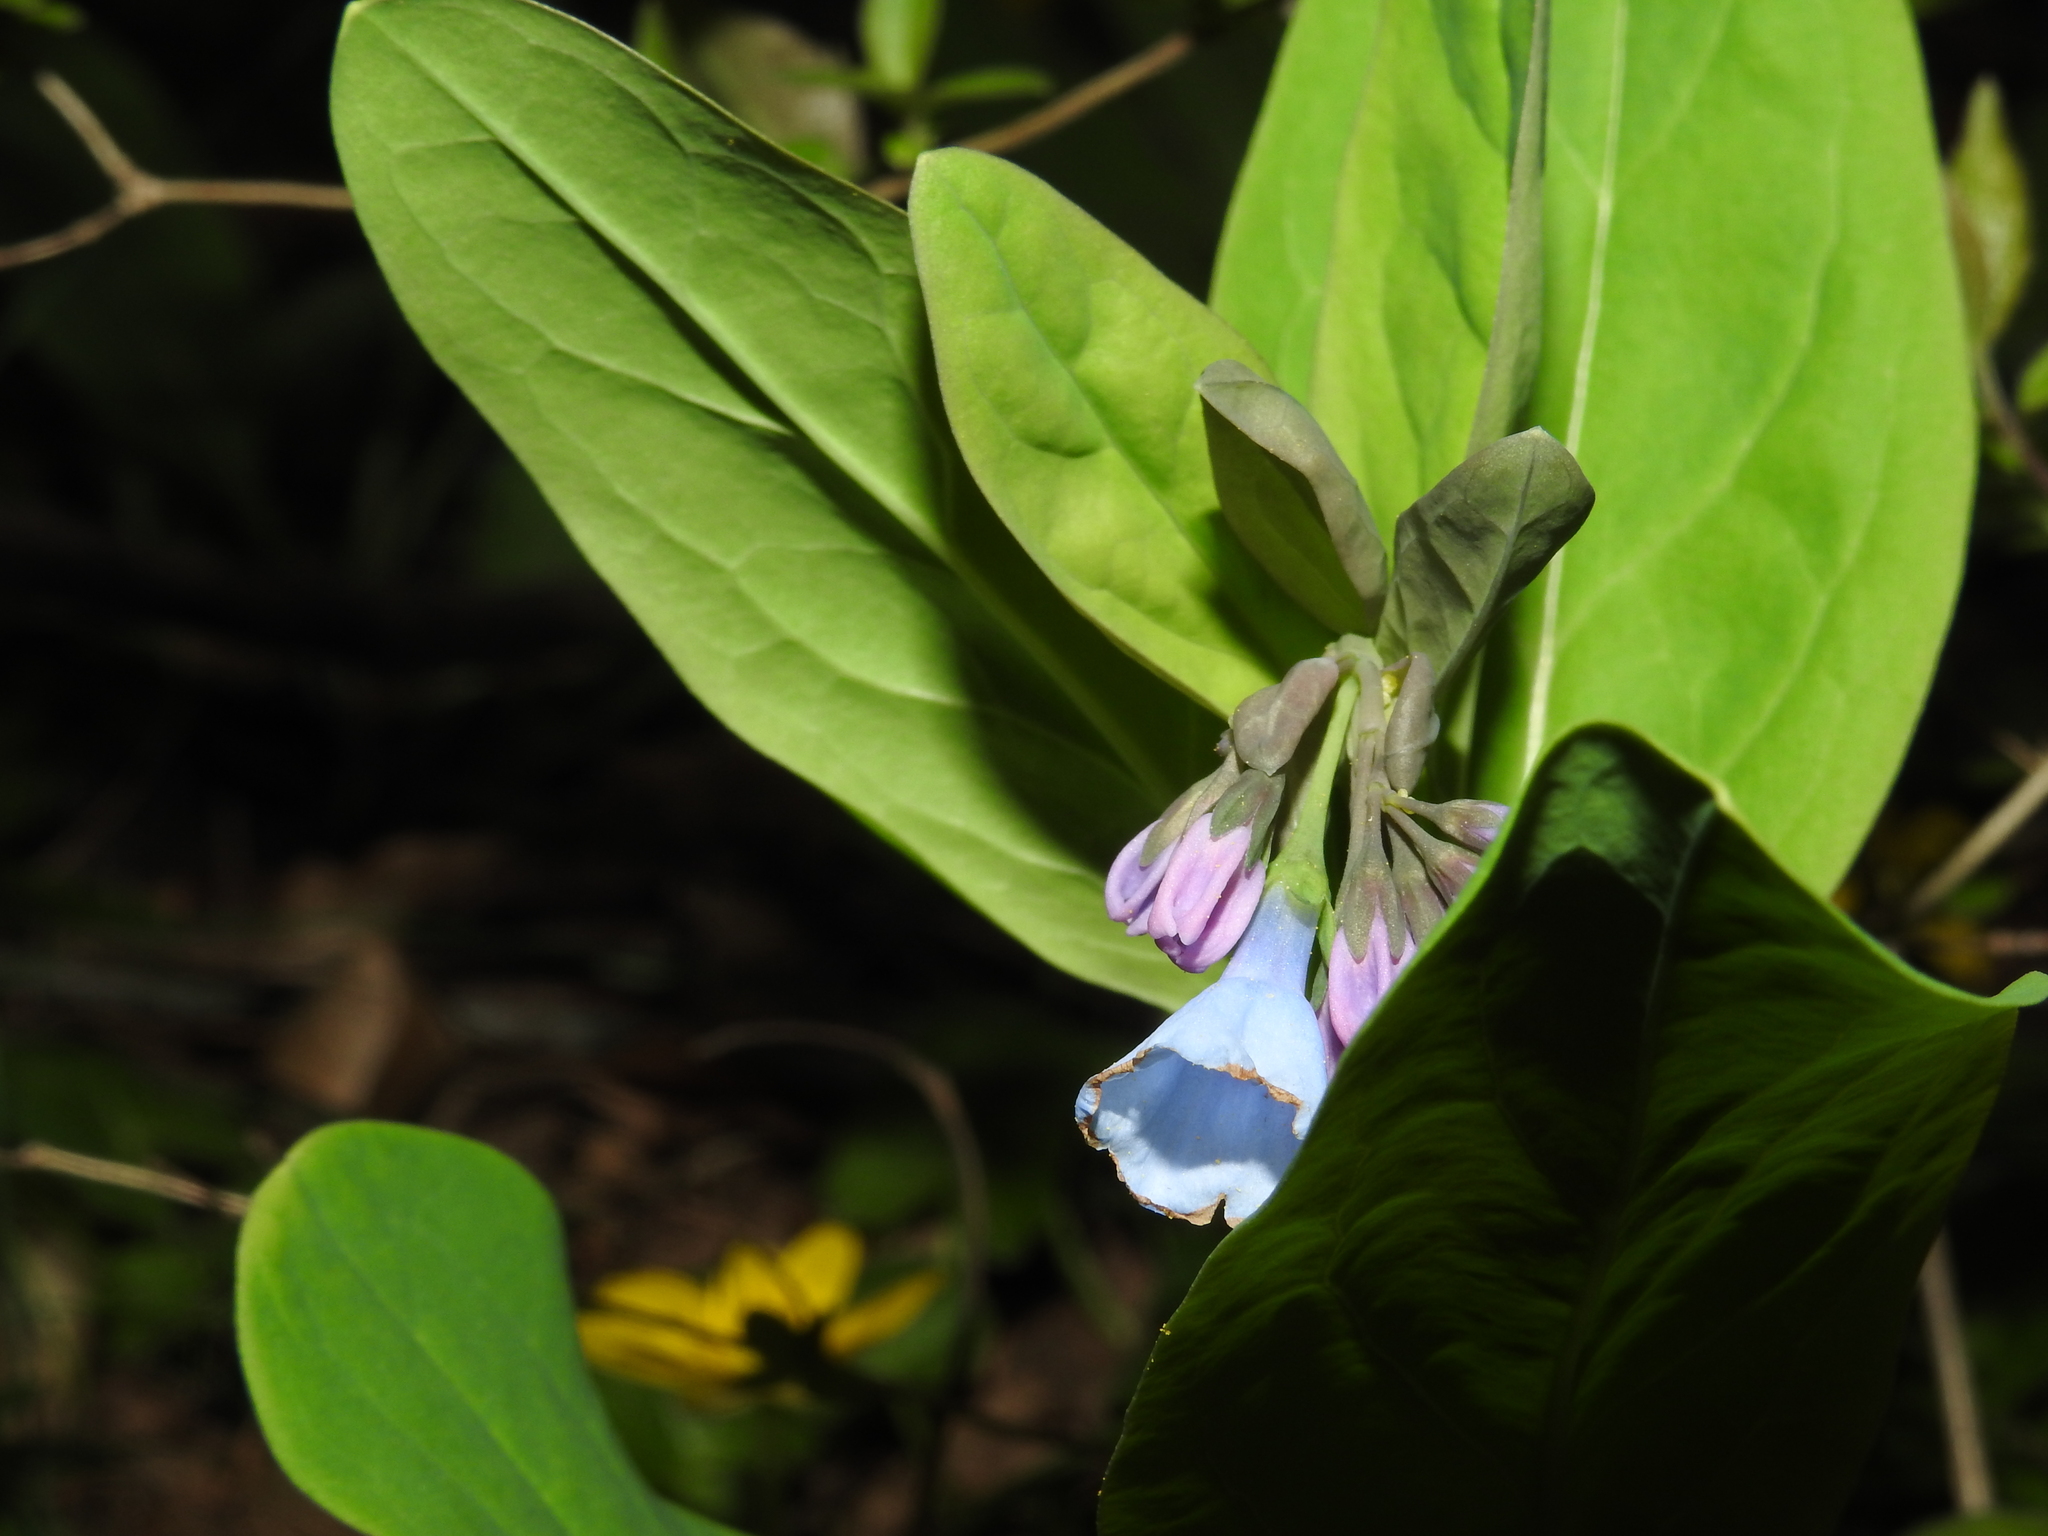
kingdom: Plantae
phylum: Tracheophyta
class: Magnoliopsida
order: Boraginales
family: Boraginaceae
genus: Mertensia
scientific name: Mertensia virginica
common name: Virginia bluebells
